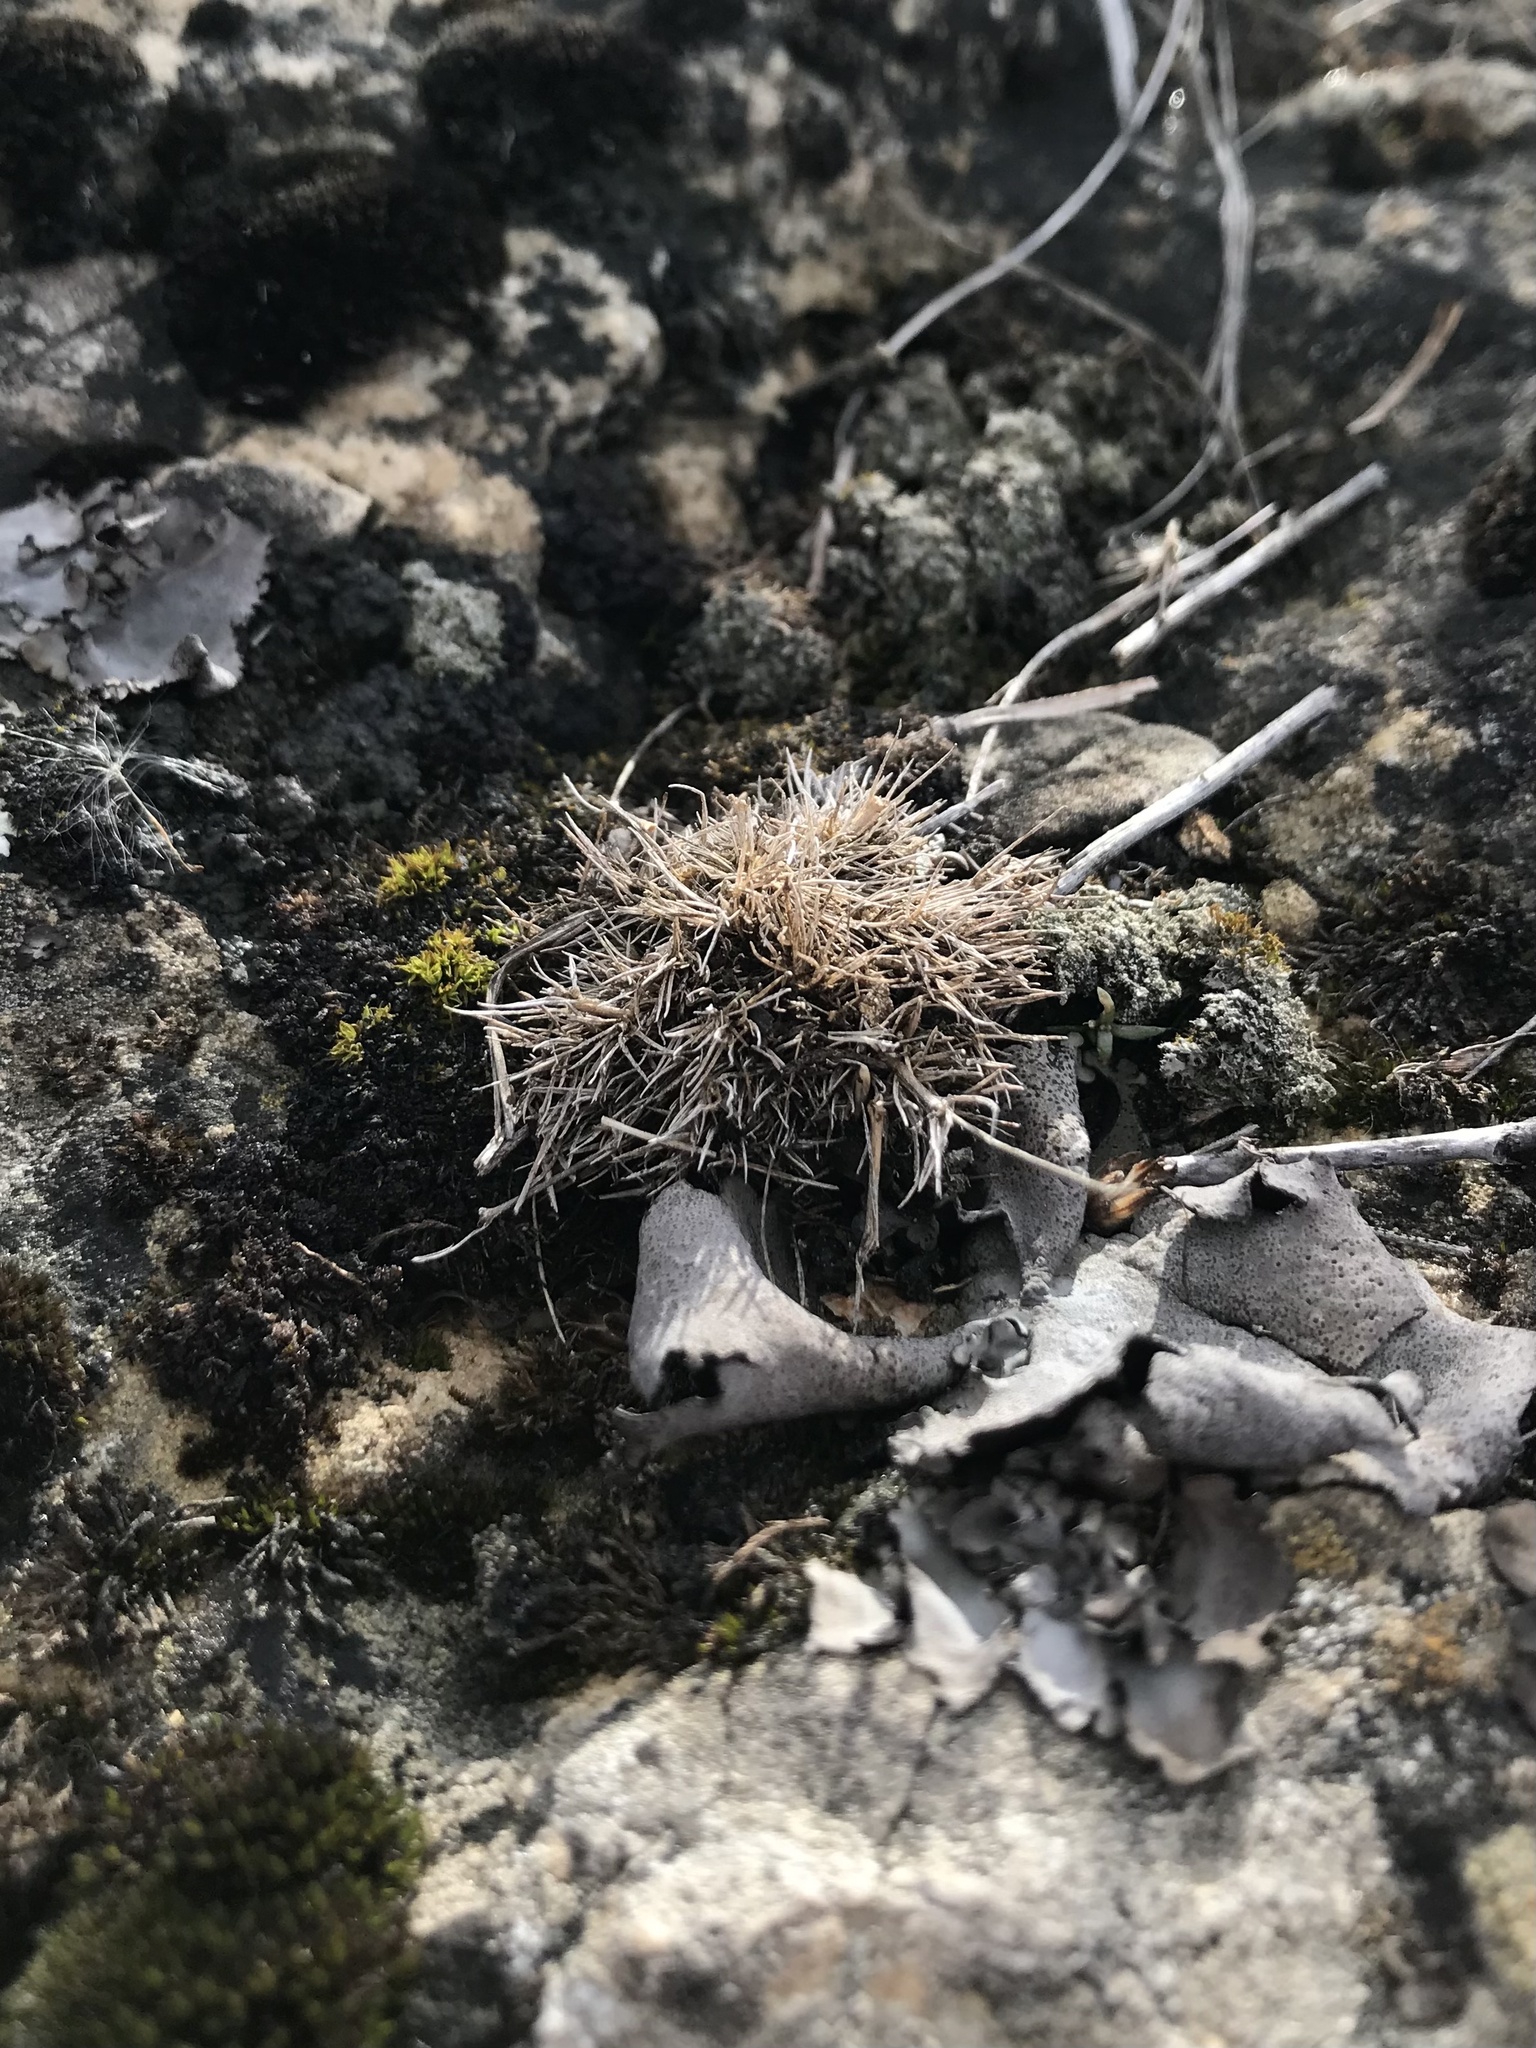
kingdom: Plantae
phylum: Tracheophyta
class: Magnoliopsida
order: Caryophyllales
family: Caryophyllaceae
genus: Sabulina
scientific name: Sabulina dawsonensis
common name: Dawson's cockle
